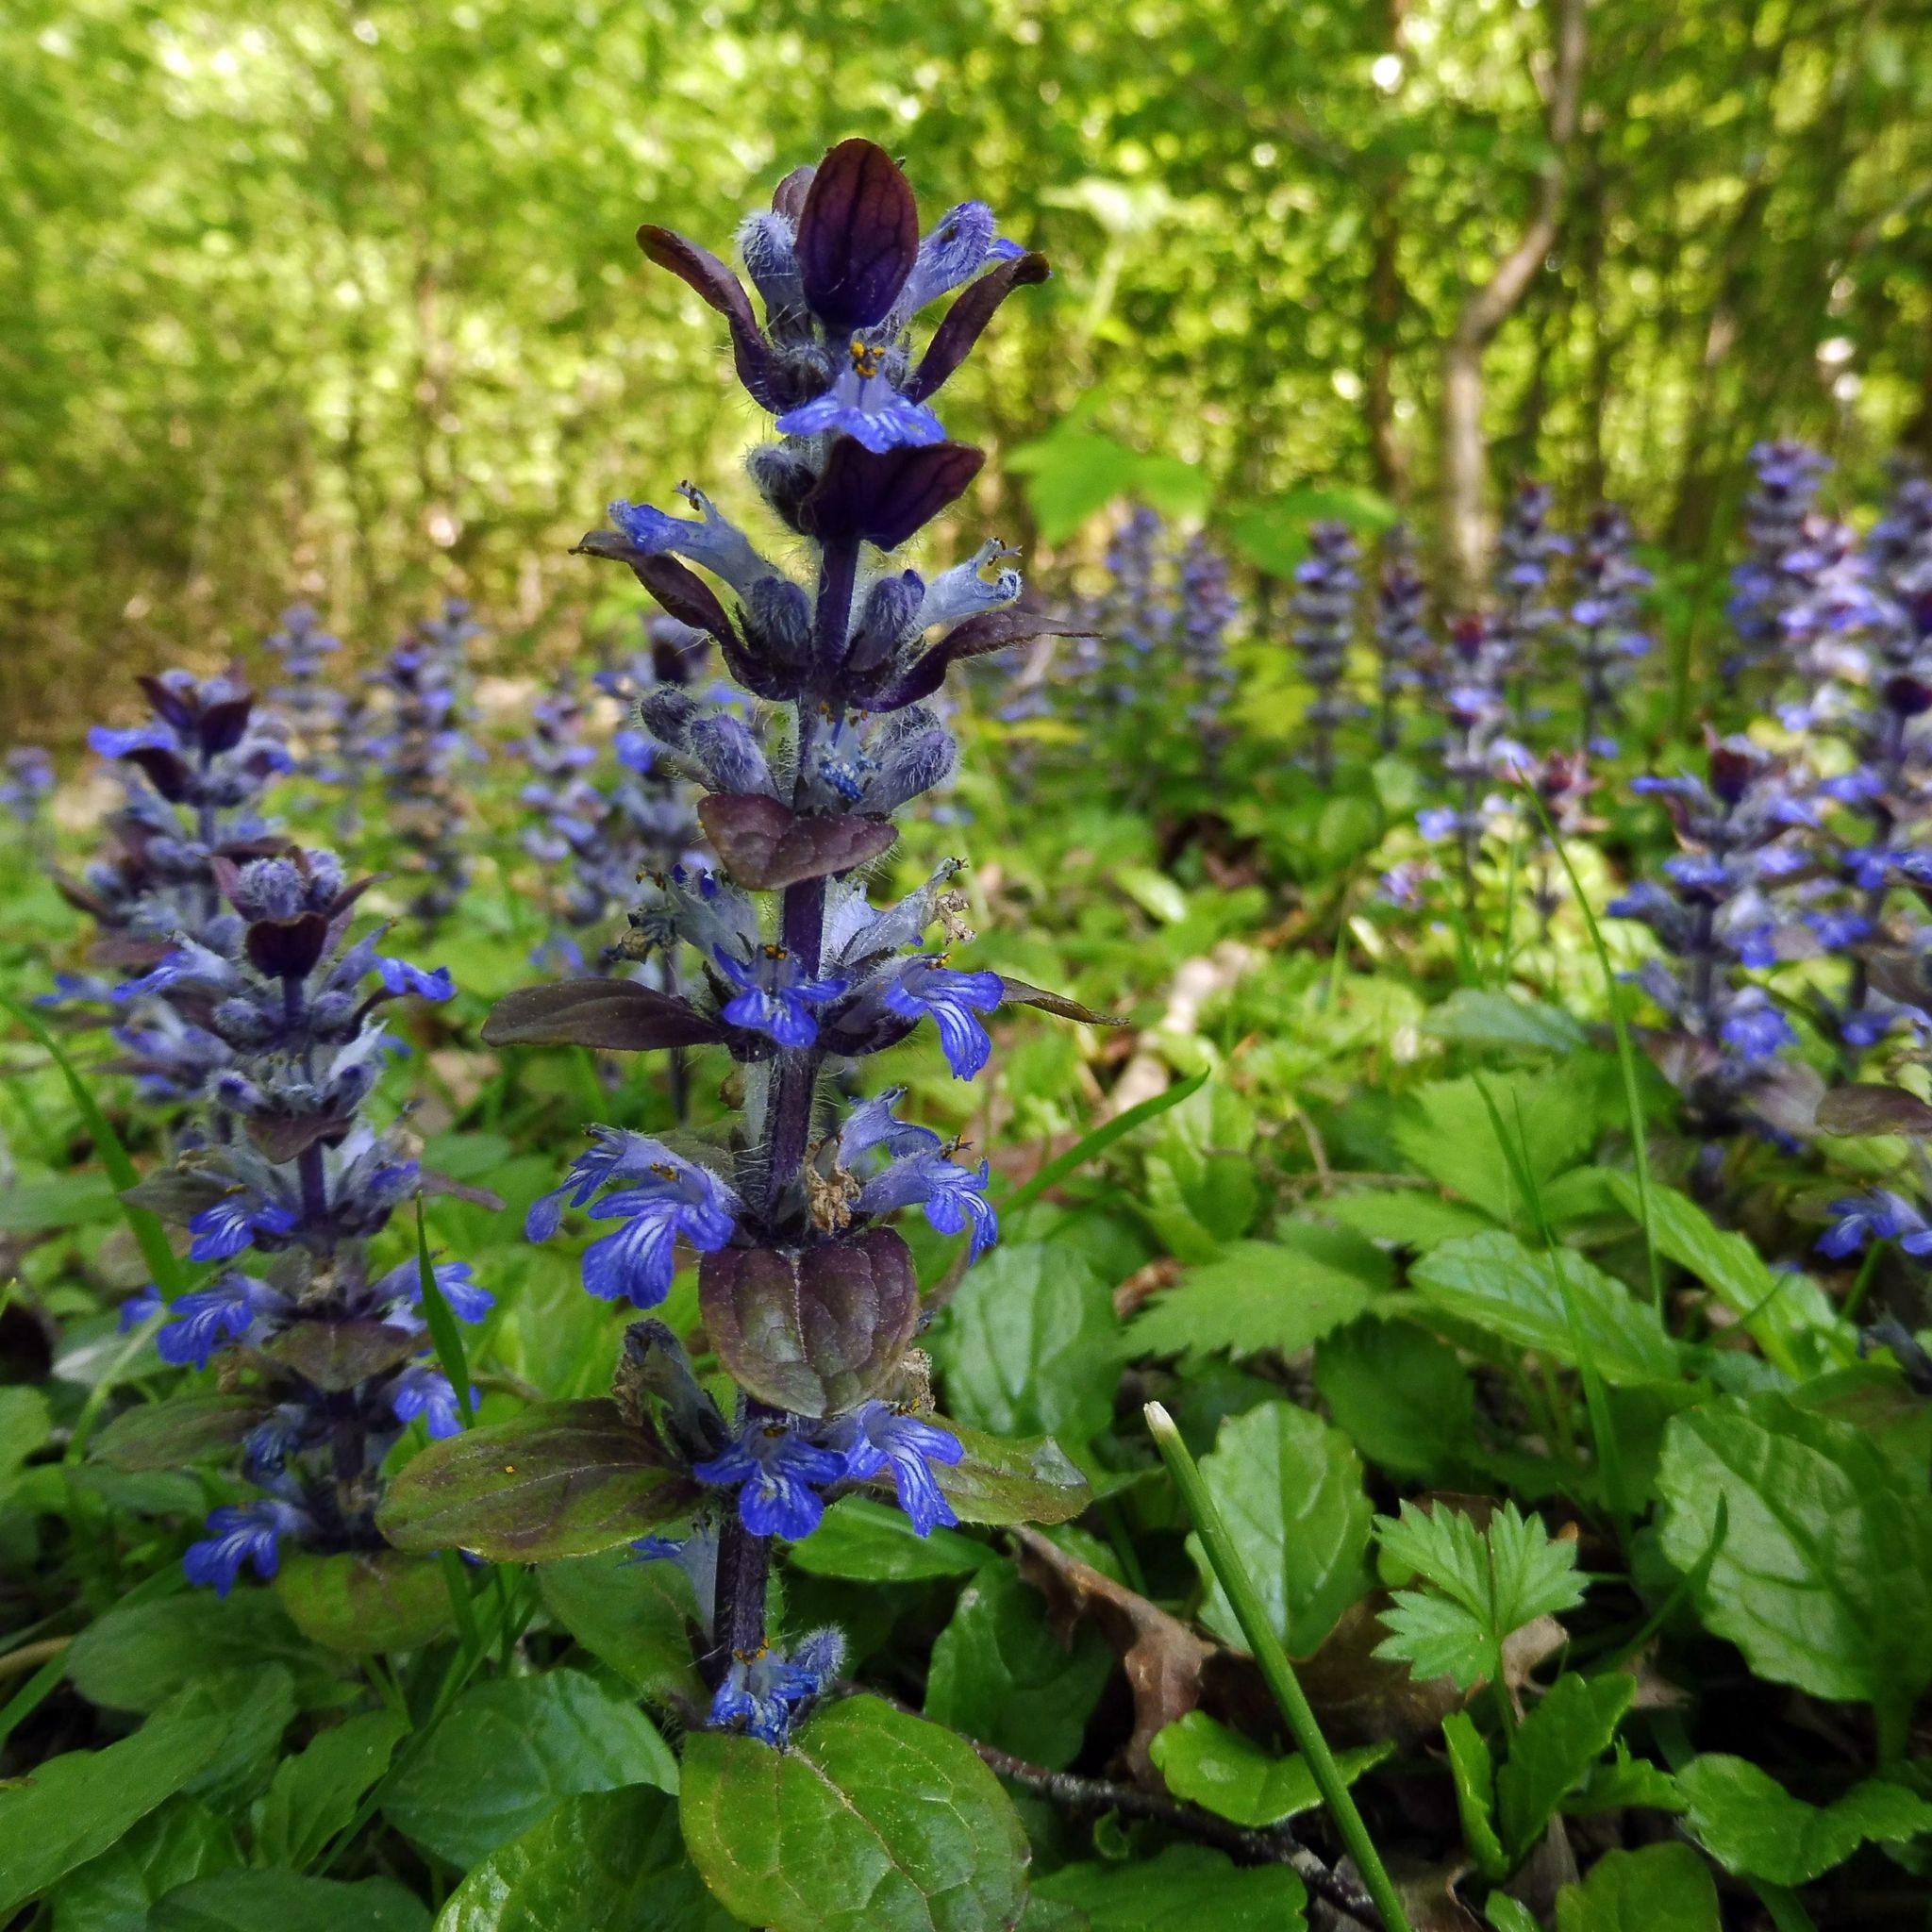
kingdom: Plantae
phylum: Tracheophyta
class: Magnoliopsida
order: Lamiales
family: Lamiaceae
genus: Ajuga
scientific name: Ajuga reptans
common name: Bugle
